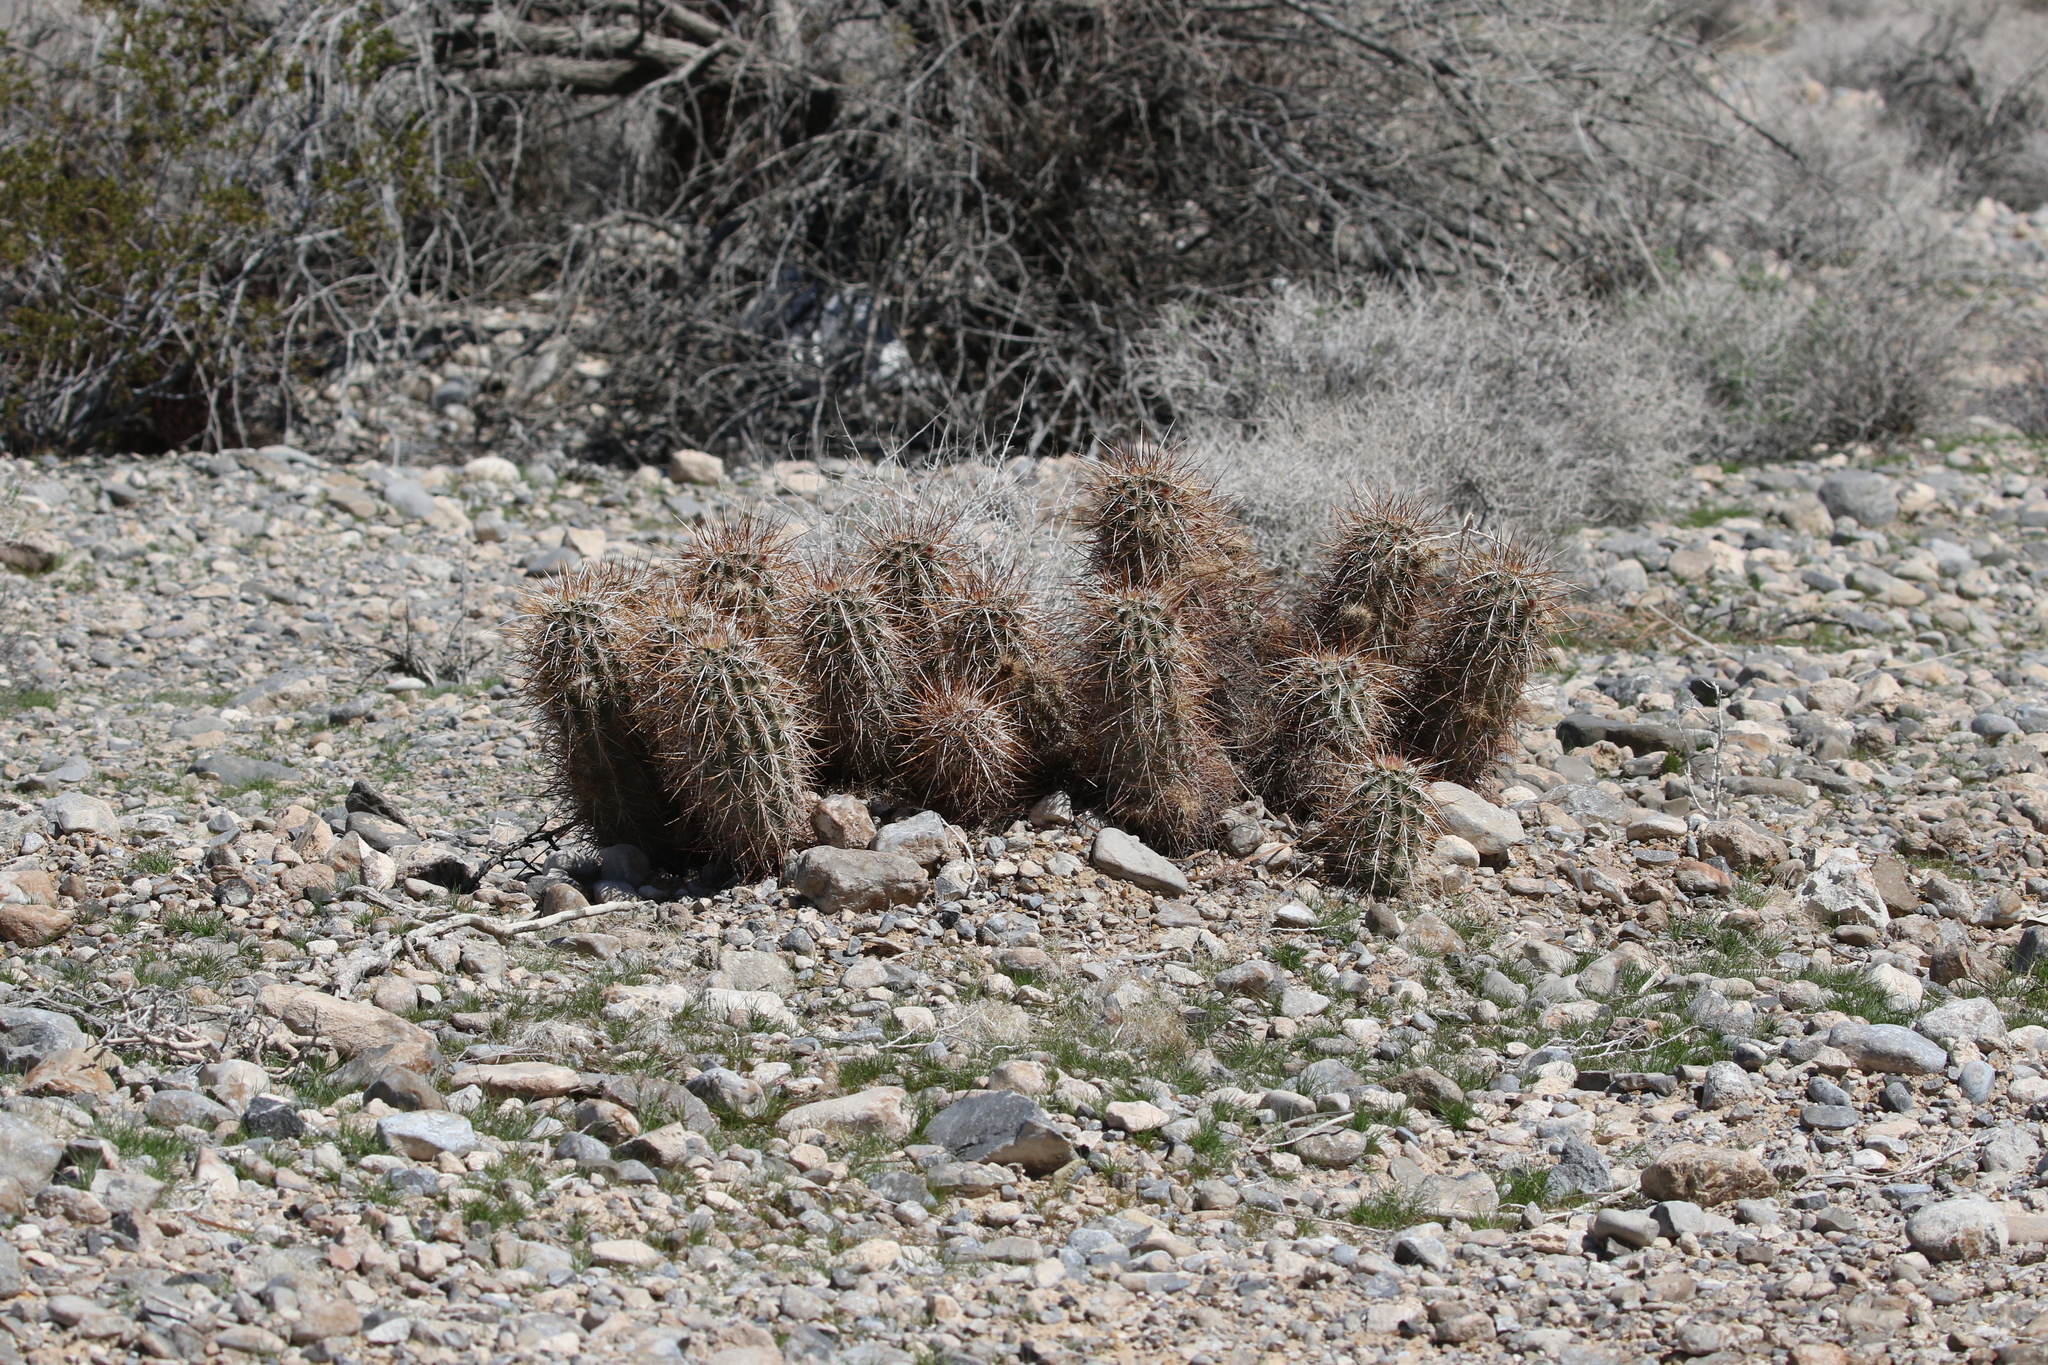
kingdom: Plantae
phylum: Tracheophyta
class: Magnoliopsida
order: Caryophyllales
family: Cactaceae
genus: Echinocereus
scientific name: Echinocereus engelmannii
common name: Engelmann's hedgehog cactus
